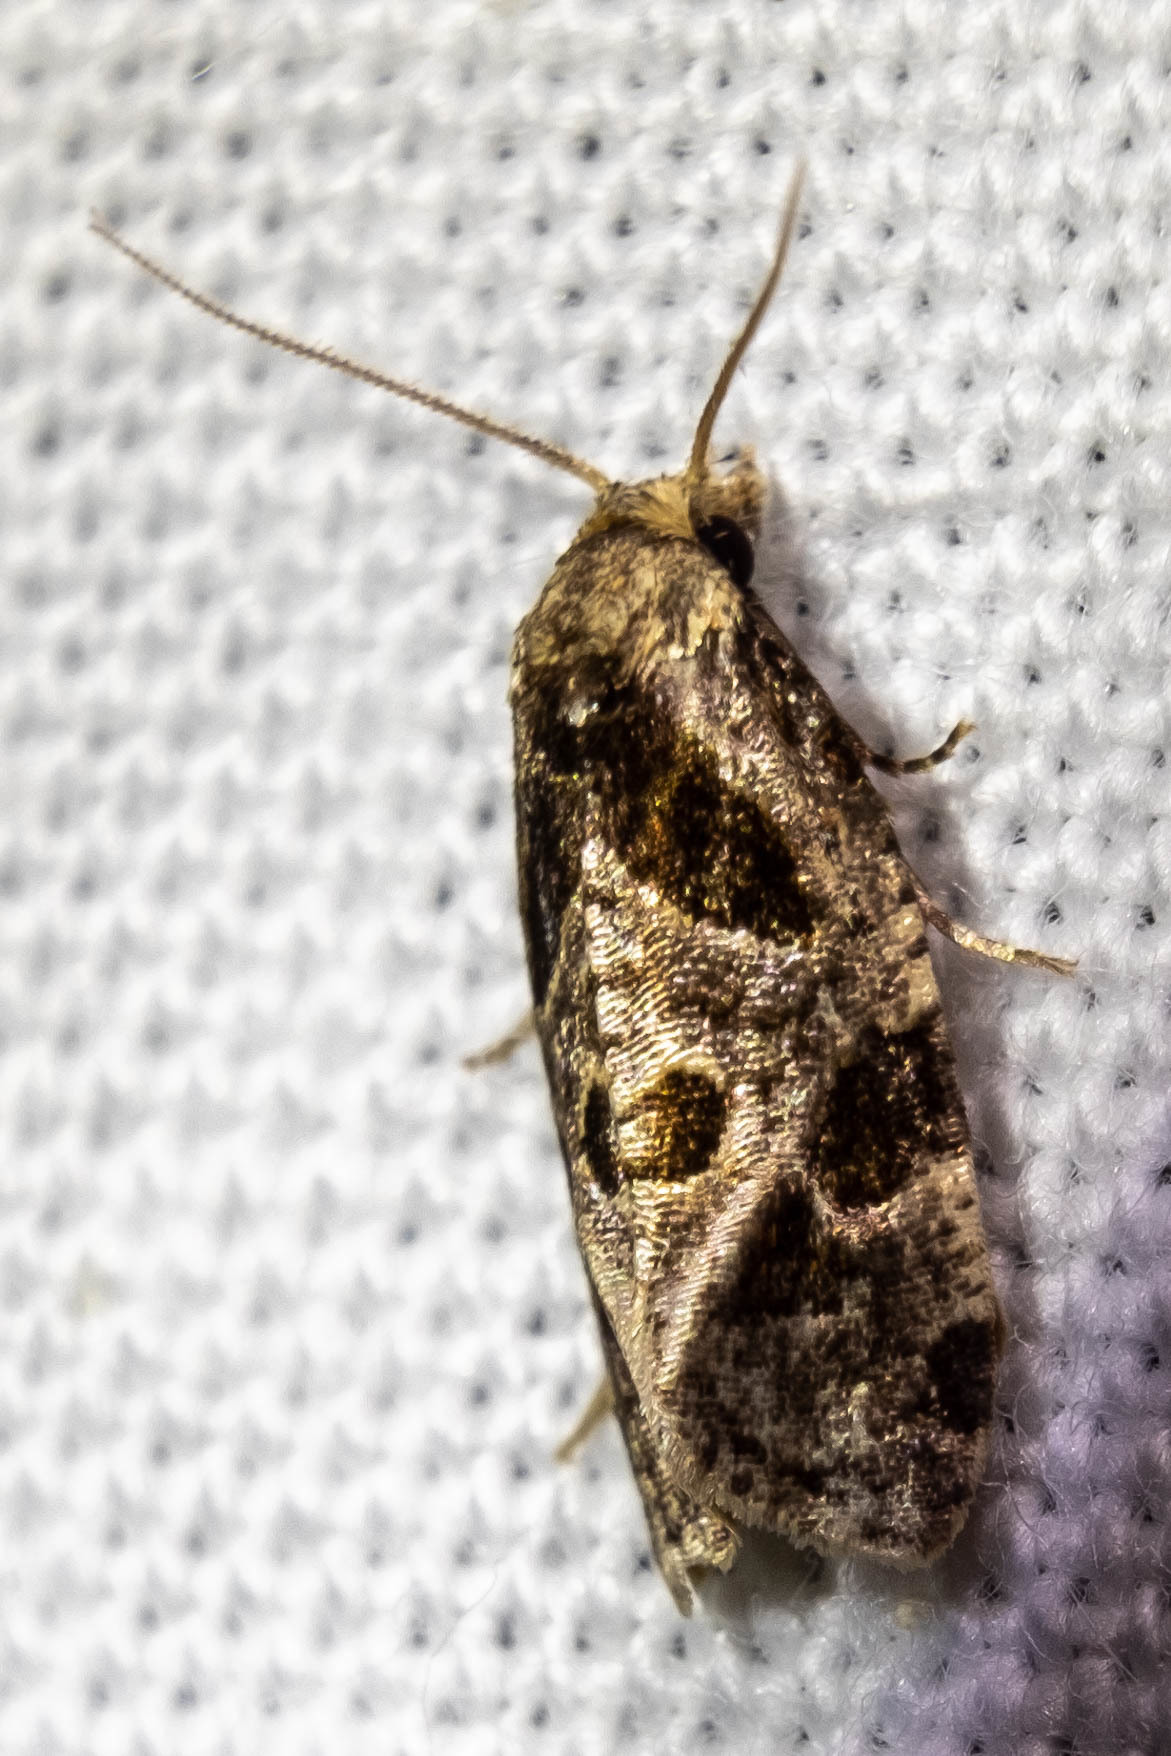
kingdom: Animalia
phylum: Arthropoda
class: Insecta
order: Lepidoptera
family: Tortricidae
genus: Aethes
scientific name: Aethes rana
